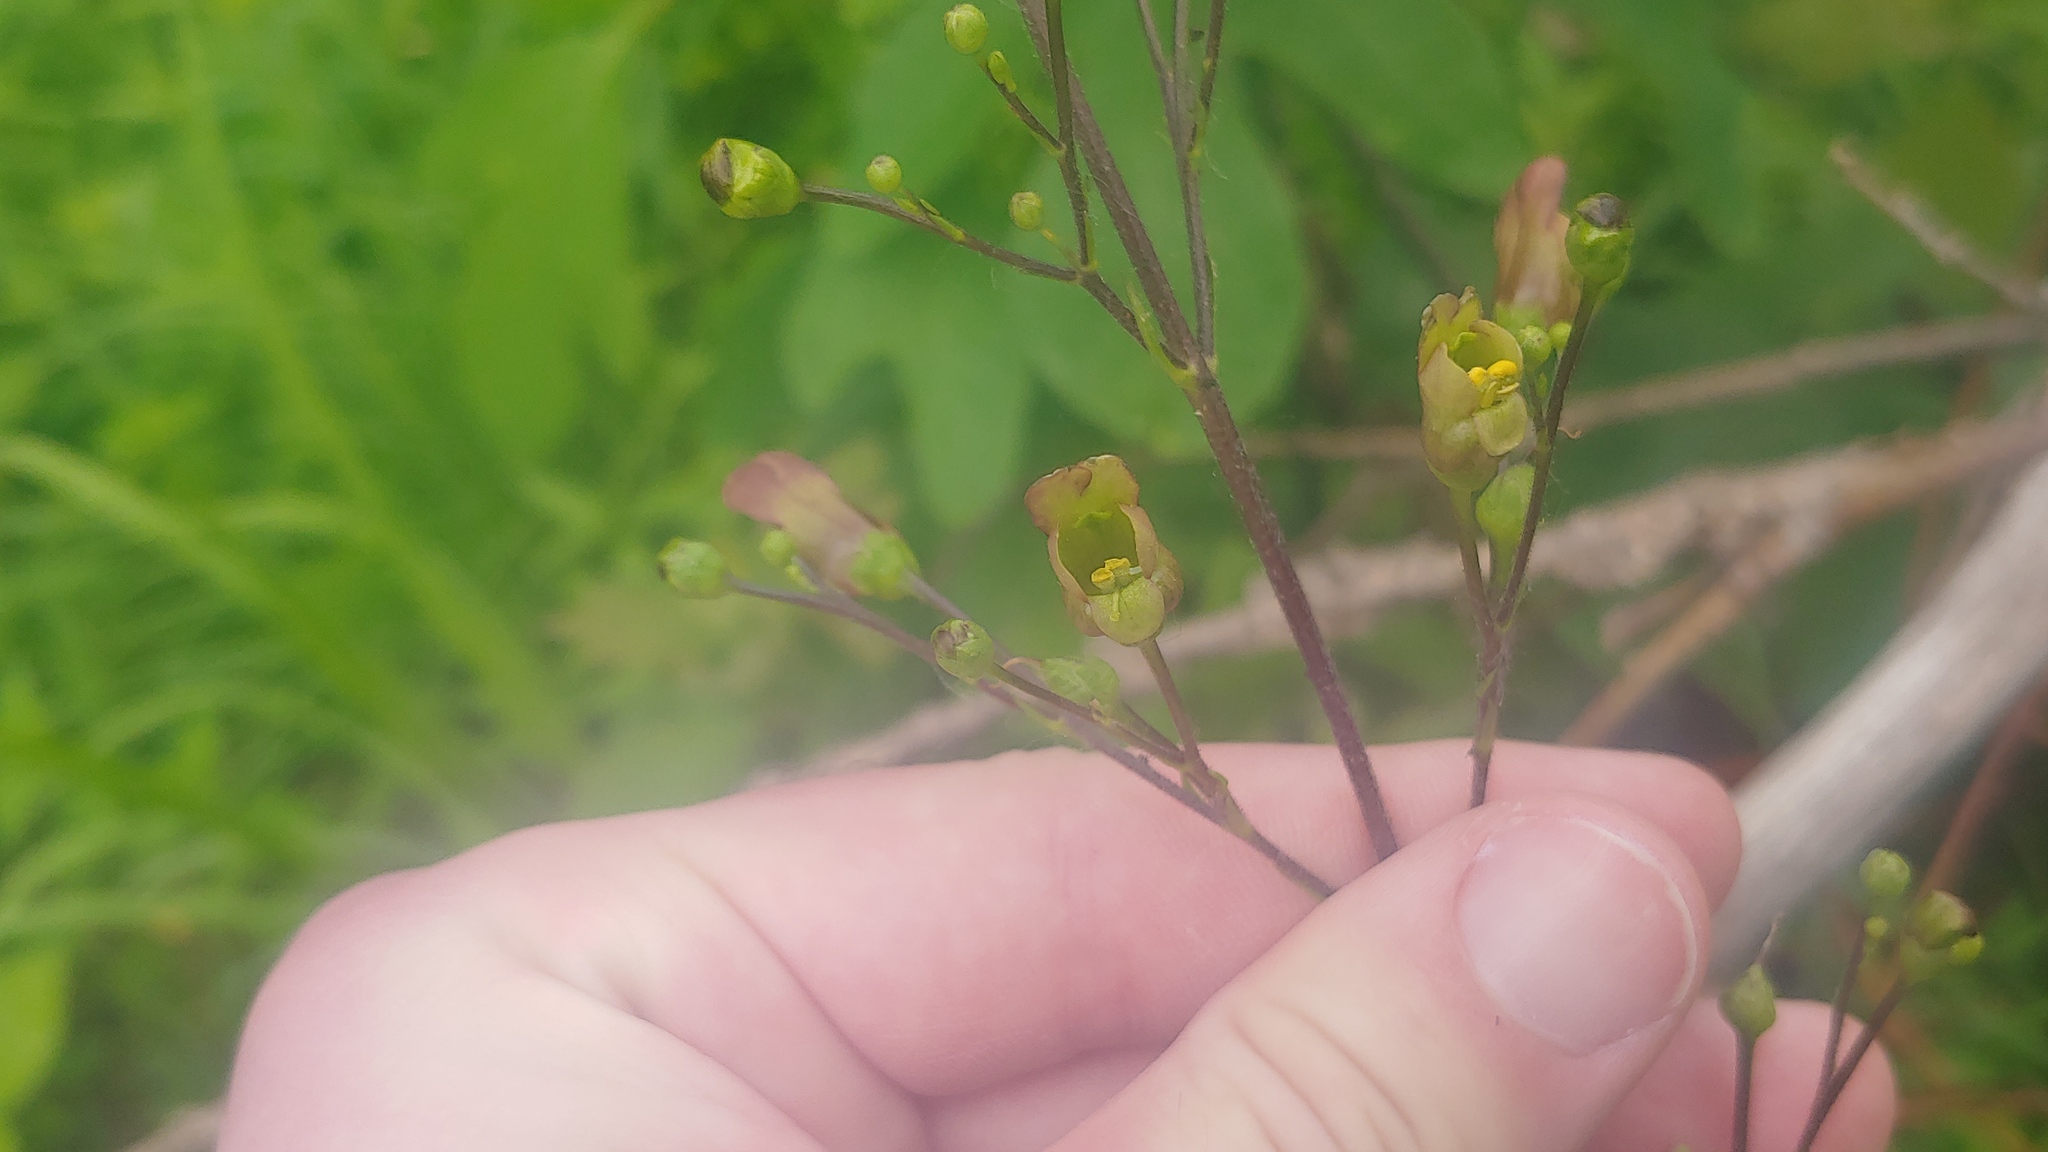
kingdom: Plantae
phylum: Tracheophyta
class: Magnoliopsida
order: Lamiales
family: Scrophulariaceae
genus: Scrophularia
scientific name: Scrophularia lanceolata
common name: American figwort
